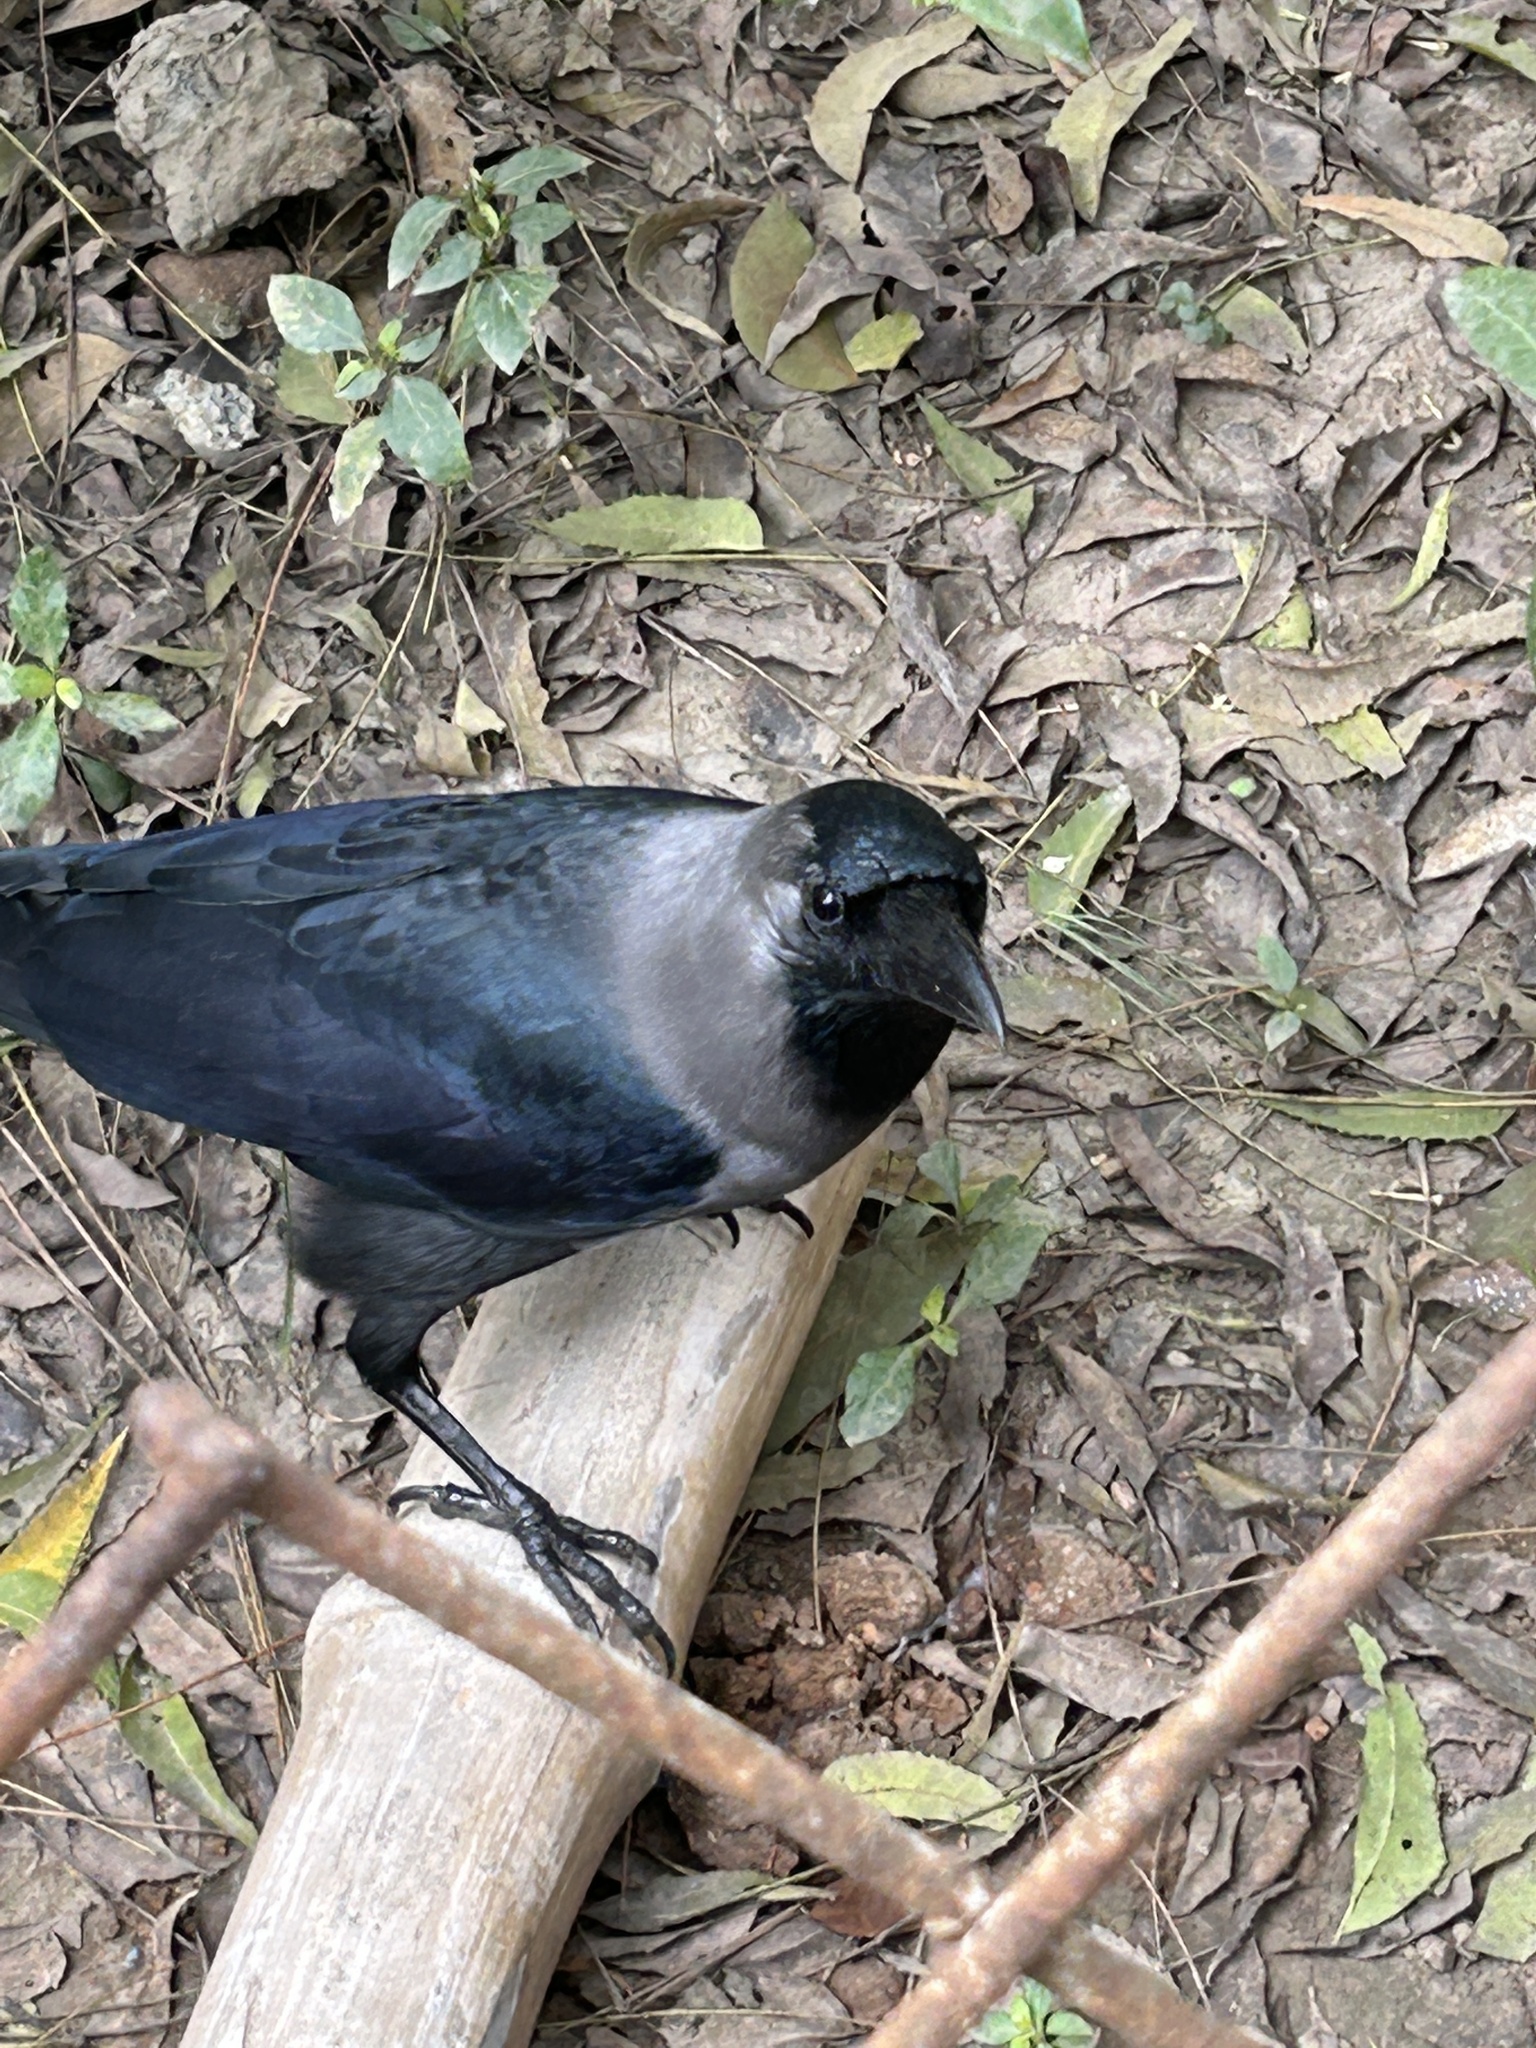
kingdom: Animalia
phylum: Chordata
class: Aves
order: Passeriformes
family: Corvidae
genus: Corvus
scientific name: Corvus splendens
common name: House crow
